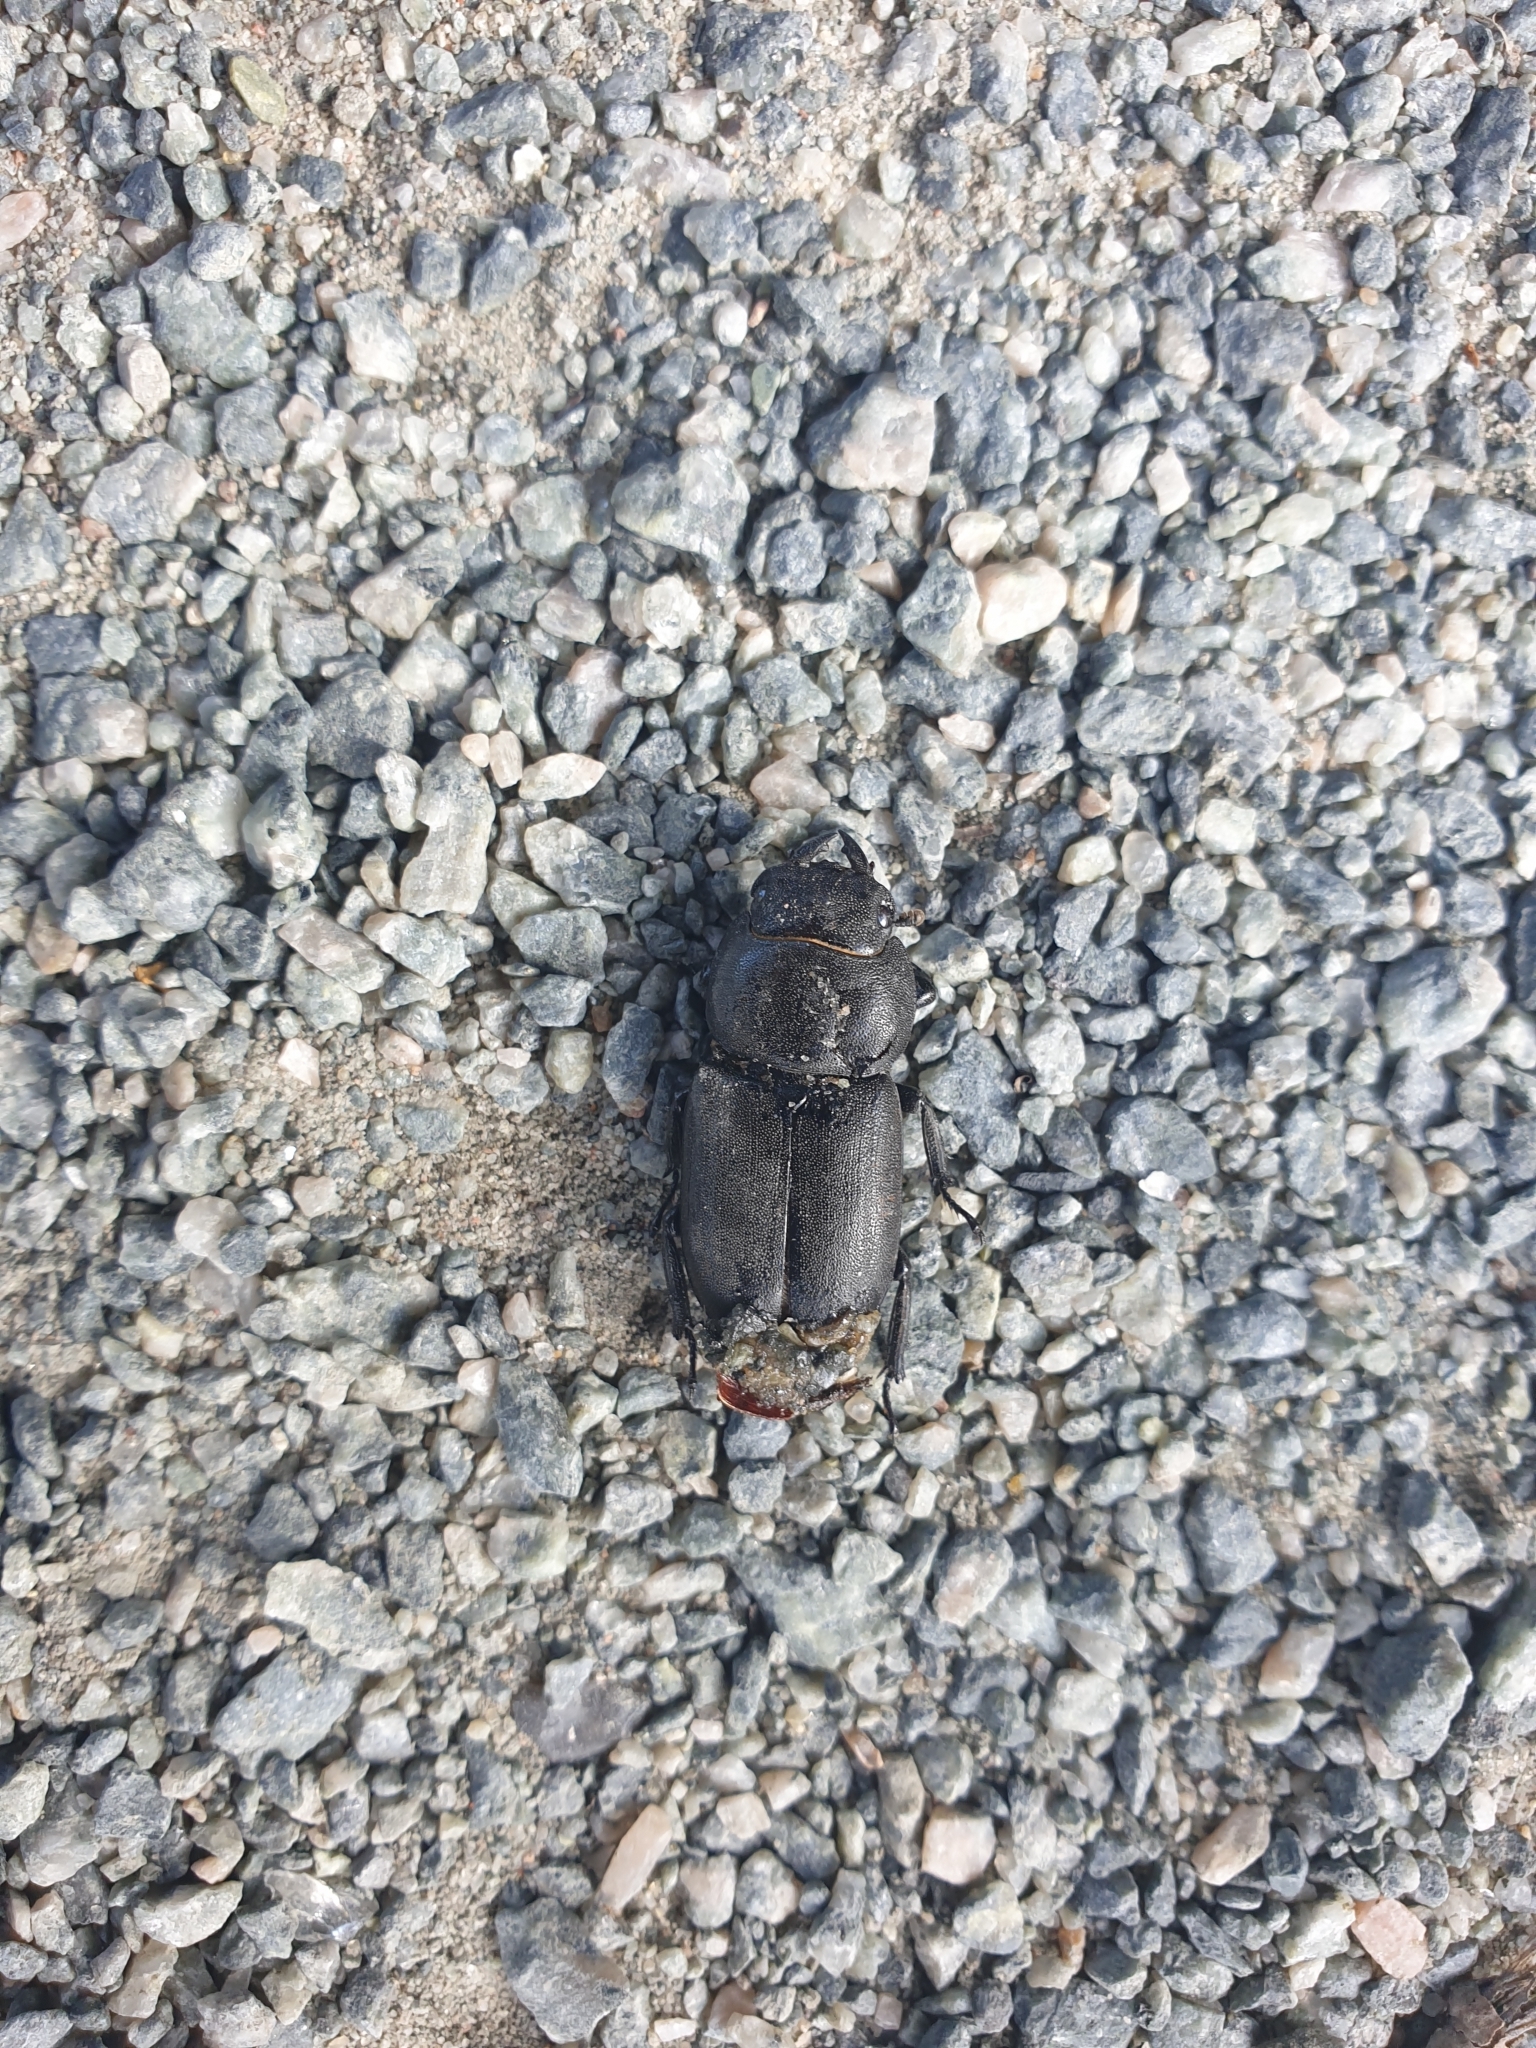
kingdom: Animalia
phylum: Arthropoda
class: Insecta
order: Coleoptera
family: Lucanidae
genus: Dorcus
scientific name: Dorcus parallelipipedus
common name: Lesser stag beetle
